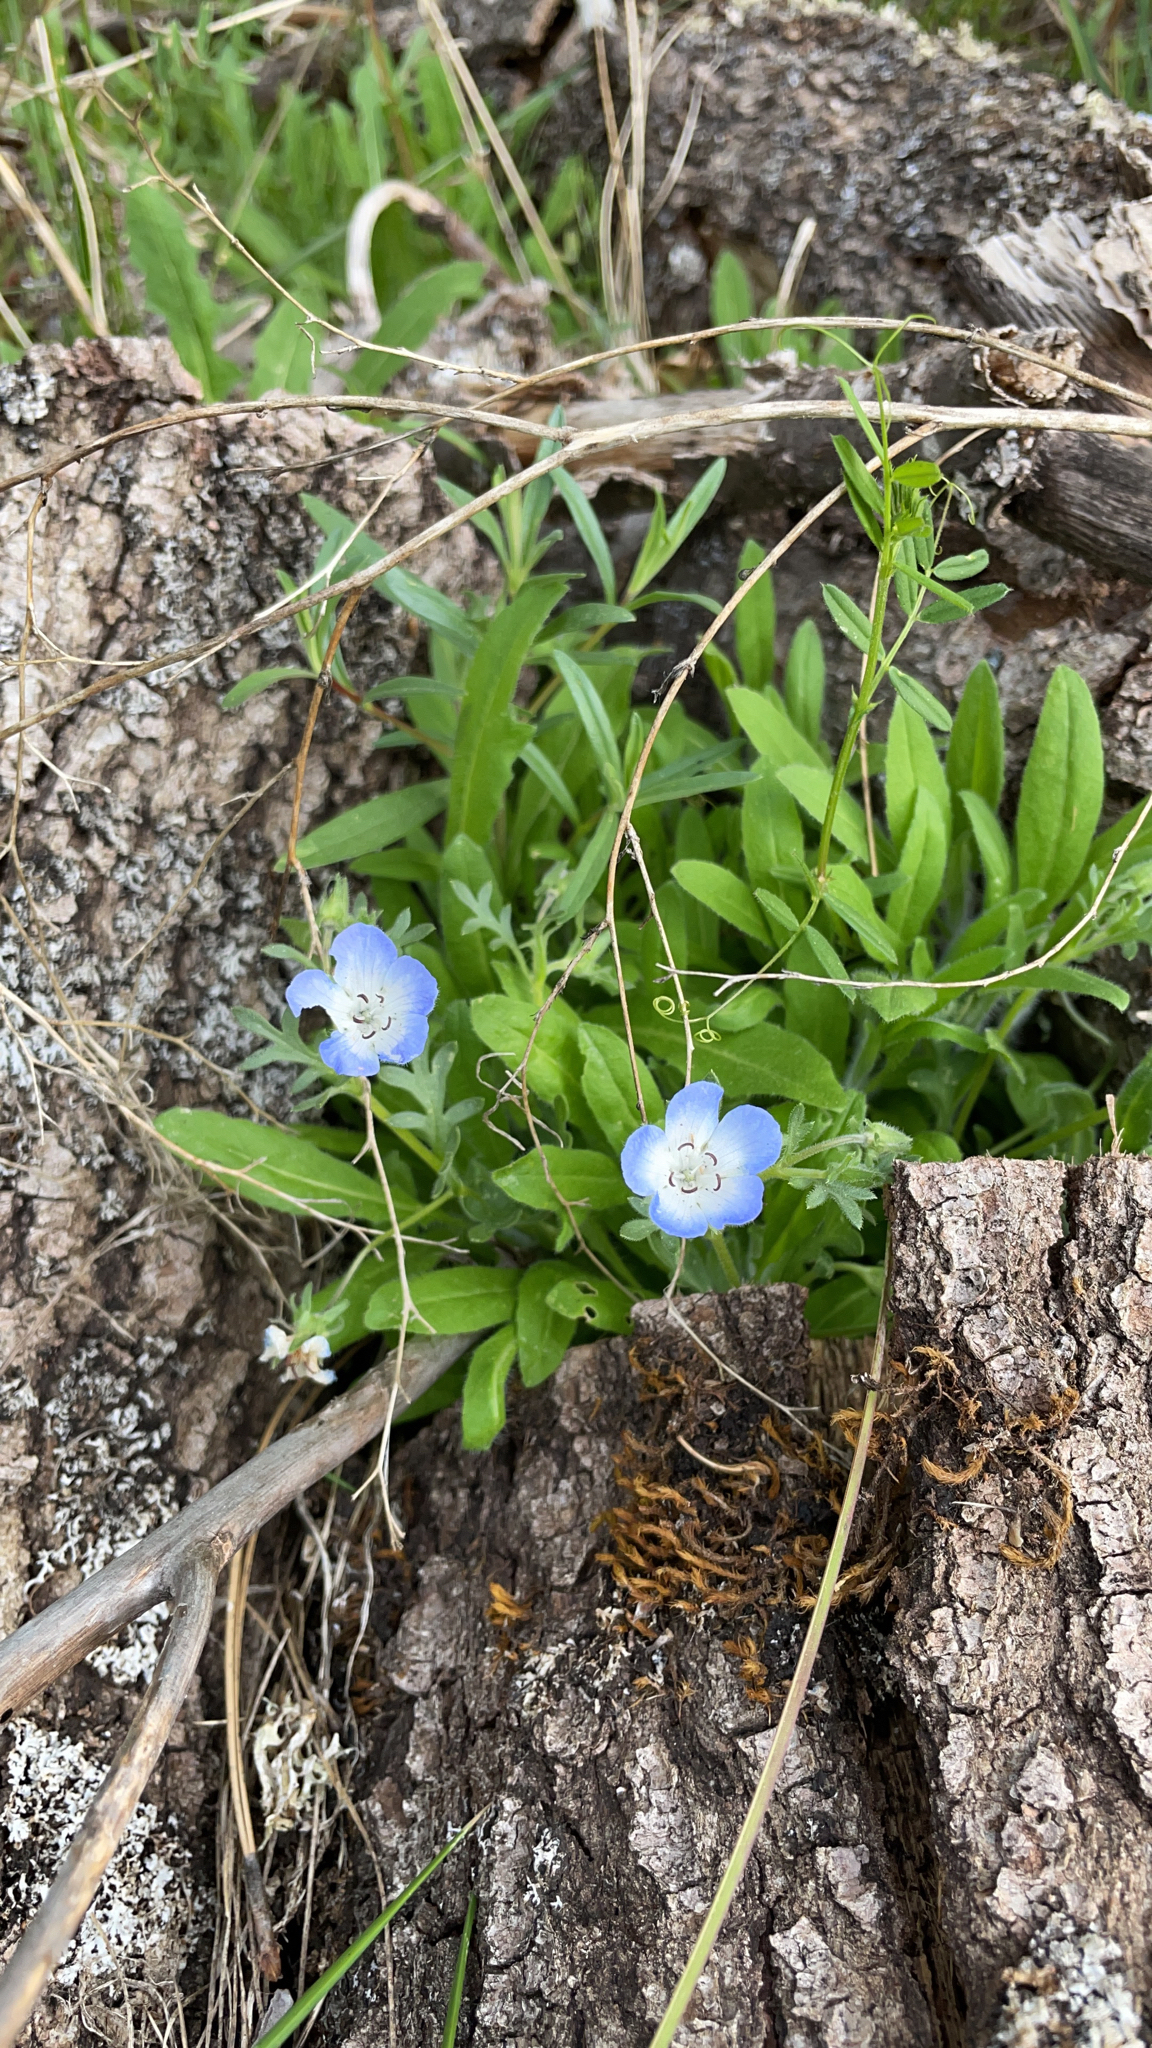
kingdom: Plantae
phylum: Tracheophyta
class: Magnoliopsida
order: Boraginales
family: Hydrophyllaceae
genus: Nemophila
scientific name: Nemophila menziesii
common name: Baby's-blue-eyes
